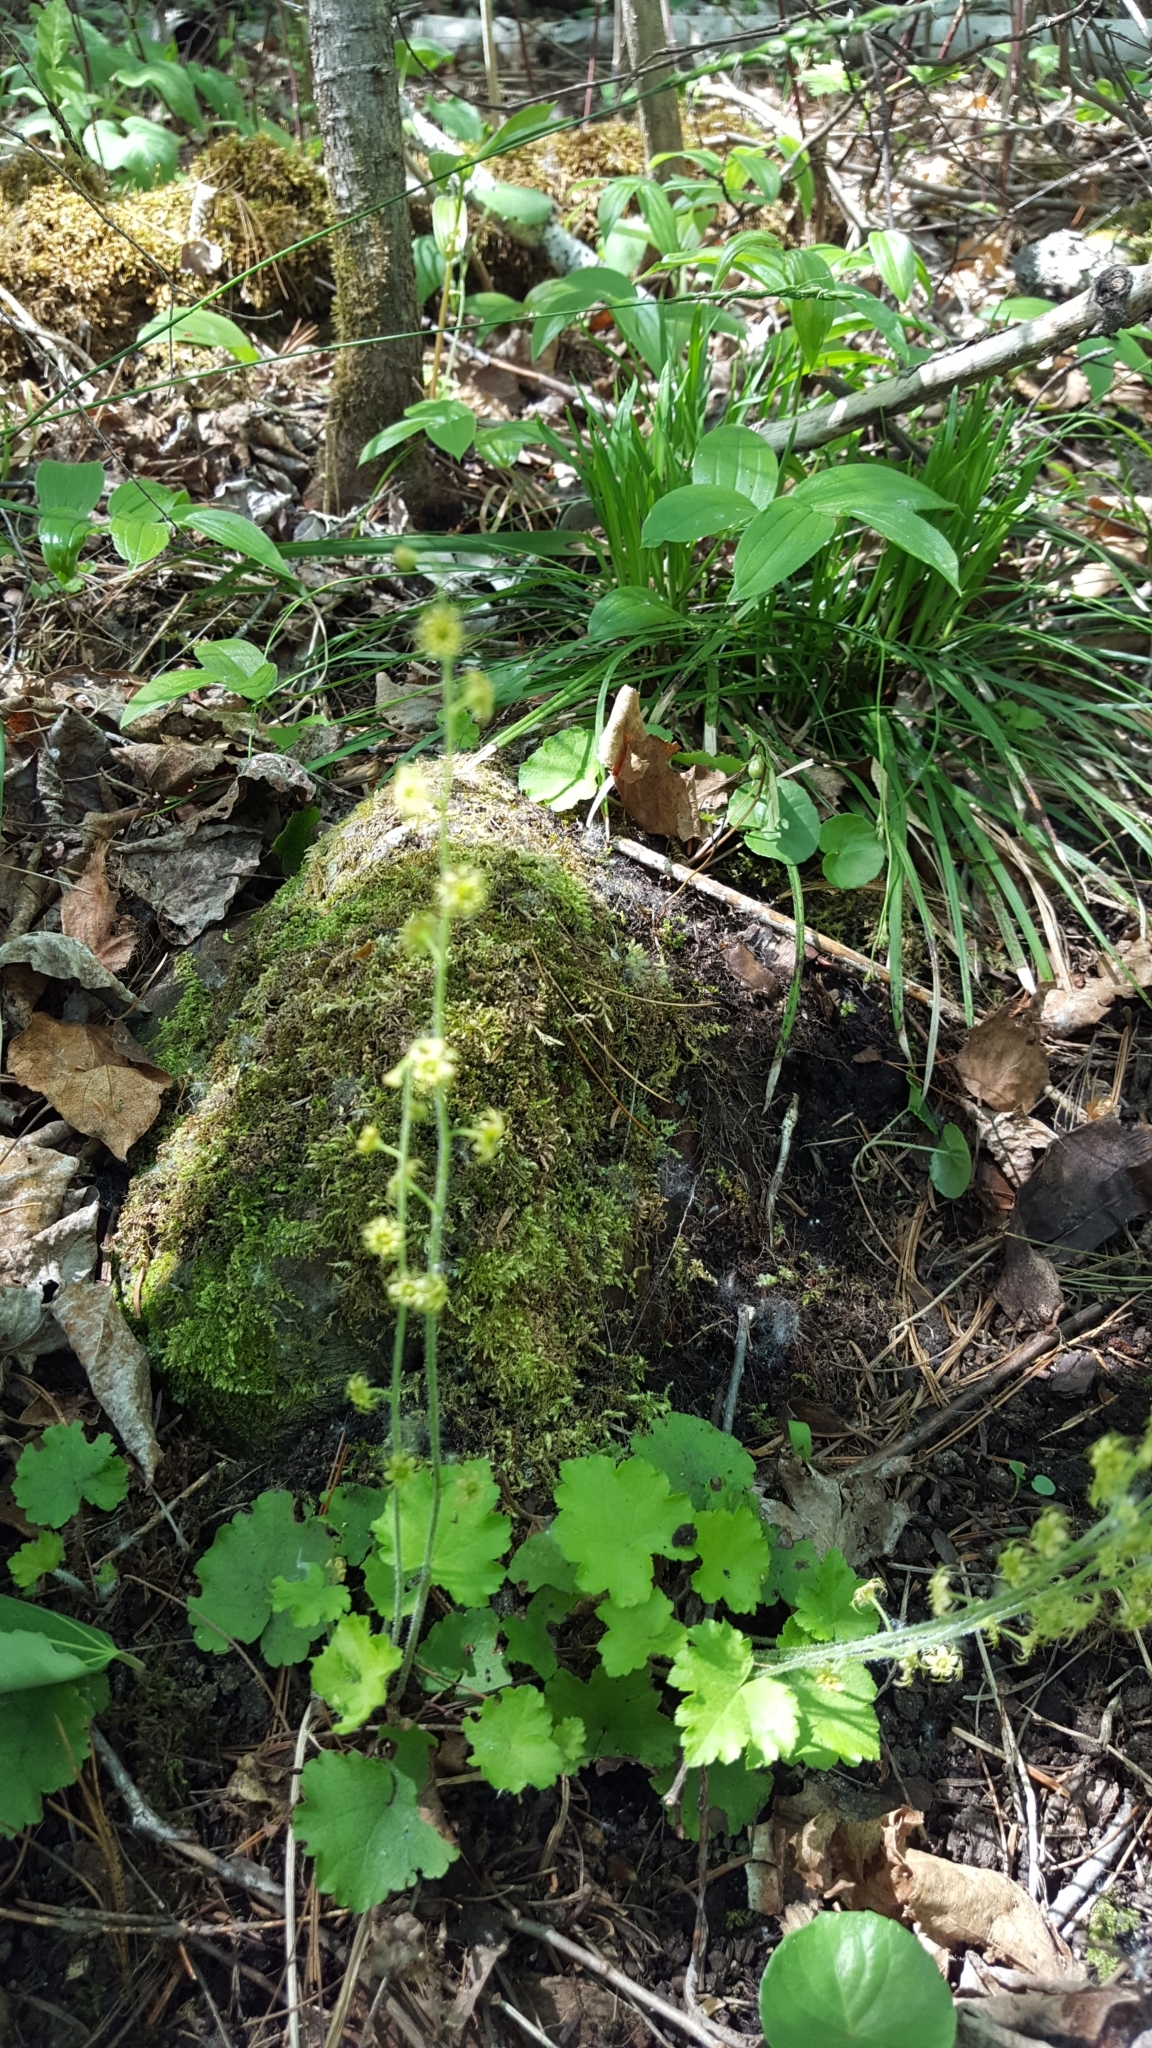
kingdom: Plantae
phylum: Tracheophyta
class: Magnoliopsida
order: Saxifragales
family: Saxifragaceae
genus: Mitella
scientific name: Mitella nuda
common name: Bare-stemmed bishop's-cap
